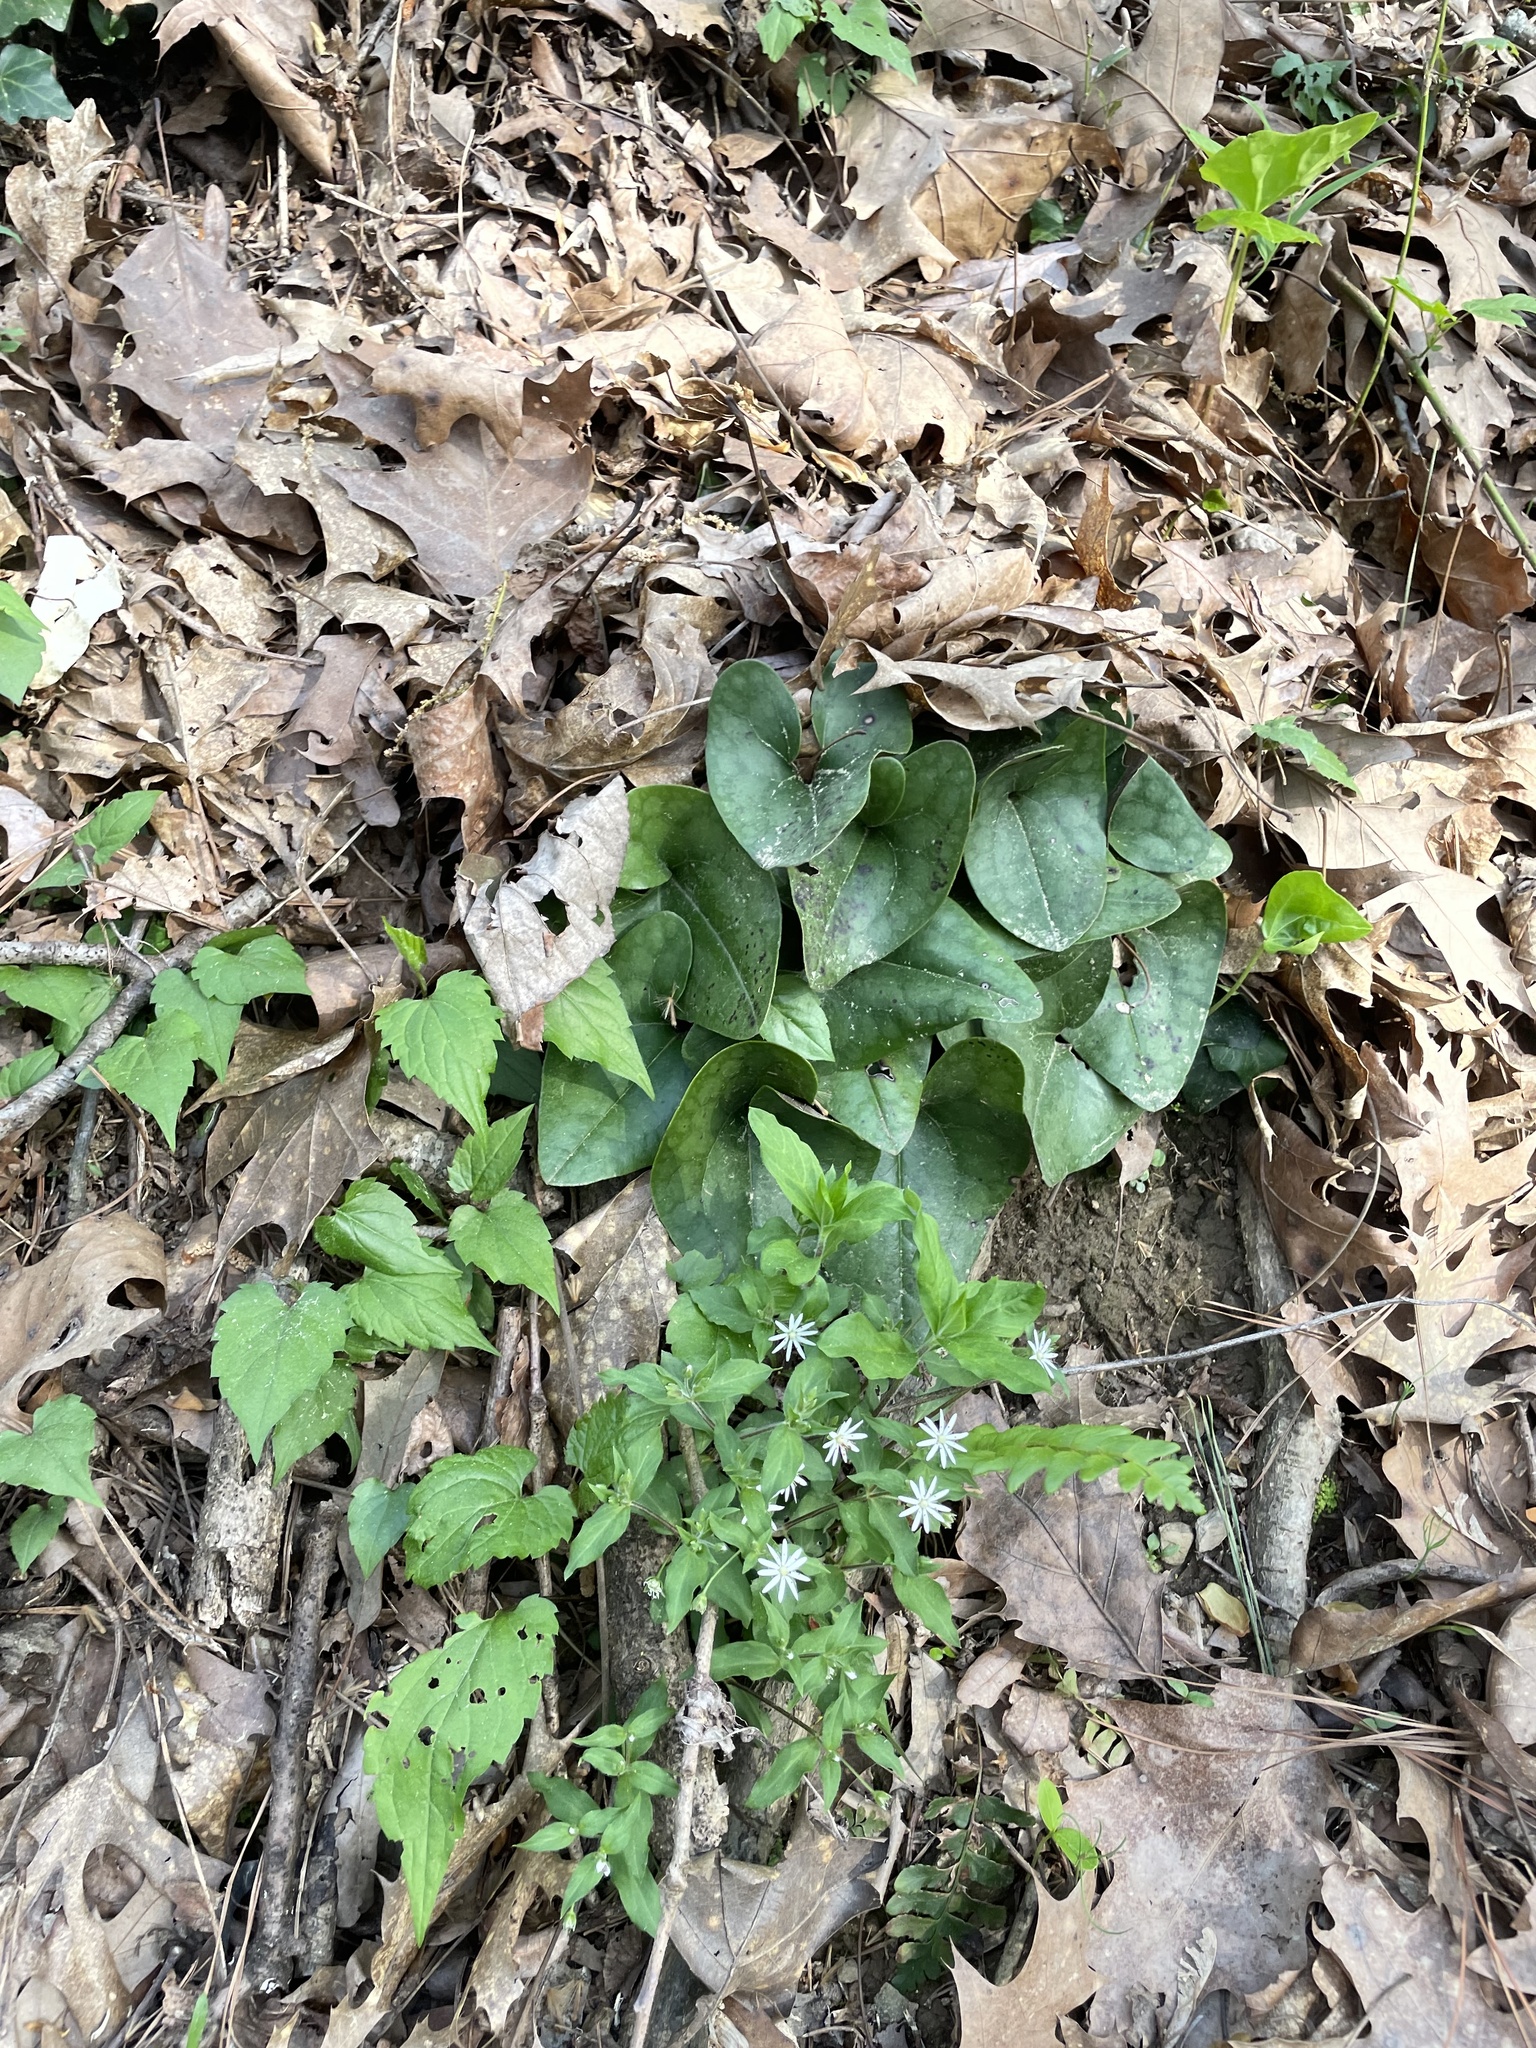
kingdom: Plantae
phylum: Tracheophyta
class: Magnoliopsida
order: Piperales
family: Aristolochiaceae
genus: Hexastylis
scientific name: Hexastylis arifolia
